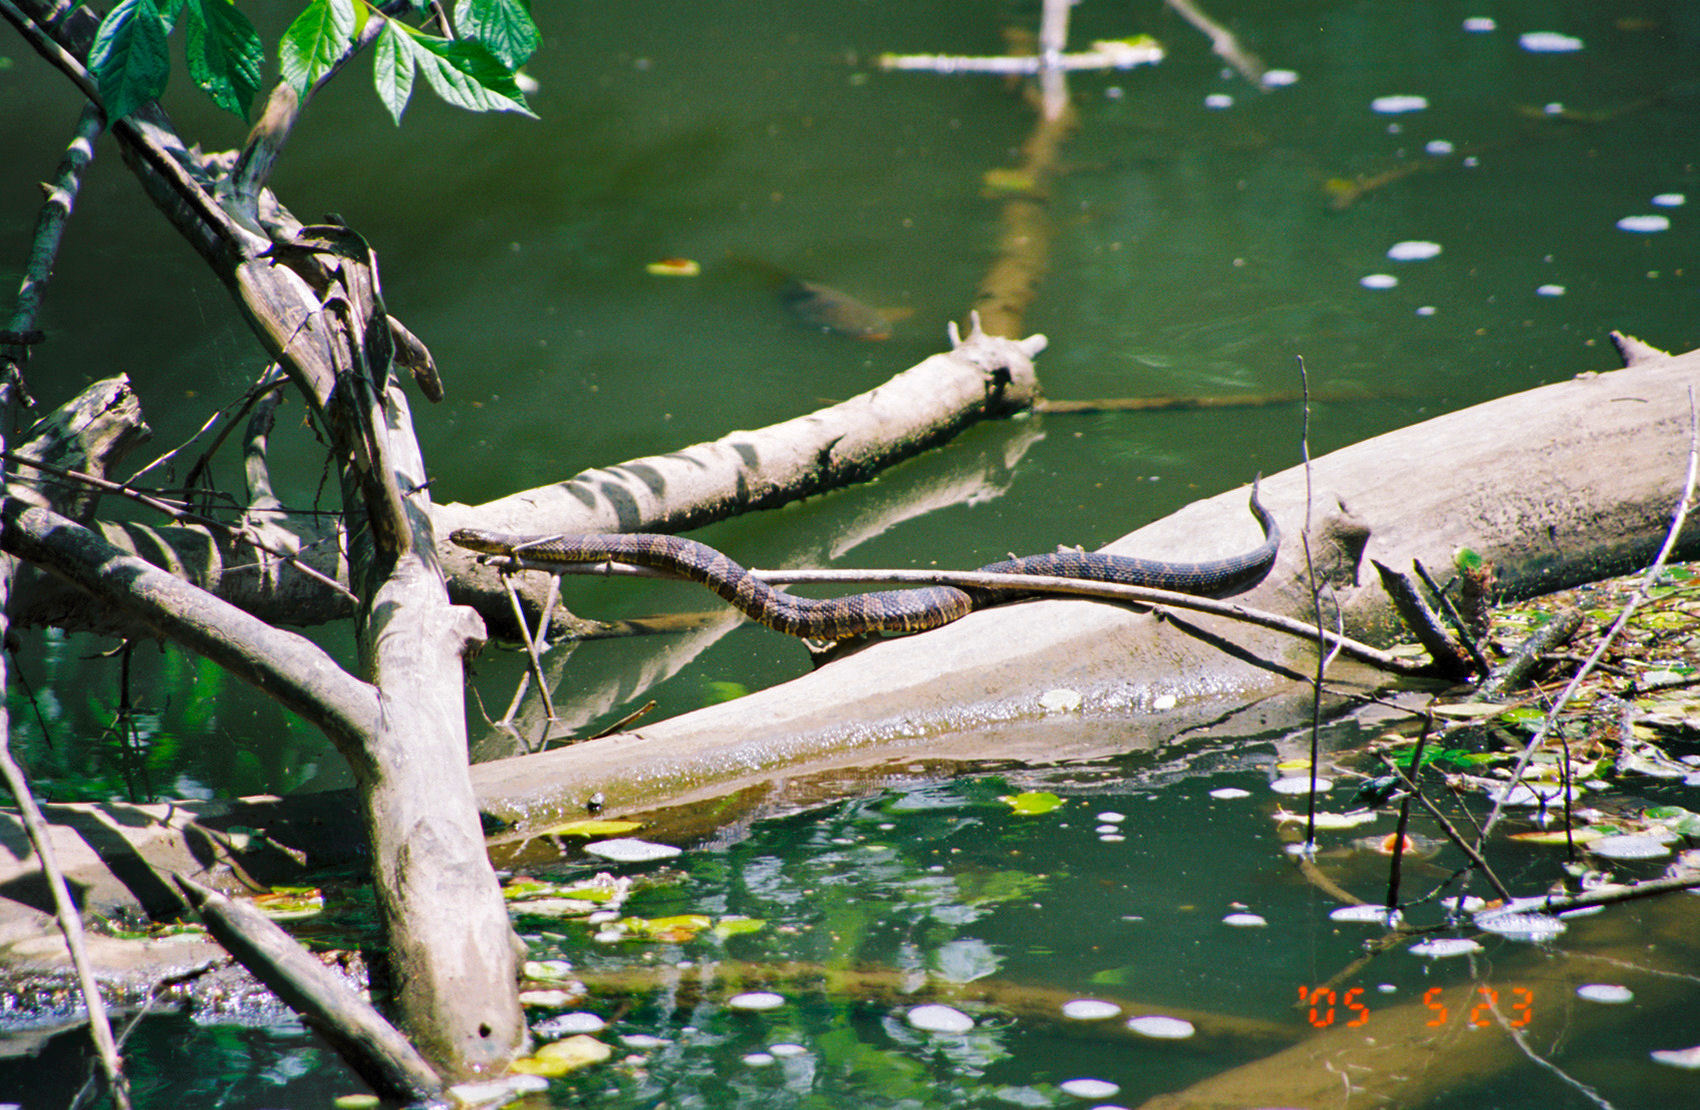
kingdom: Animalia
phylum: Chordata
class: Squamata
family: Colubridae
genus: Nerodia
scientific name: Nerodia sipedon
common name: Northern water snake
